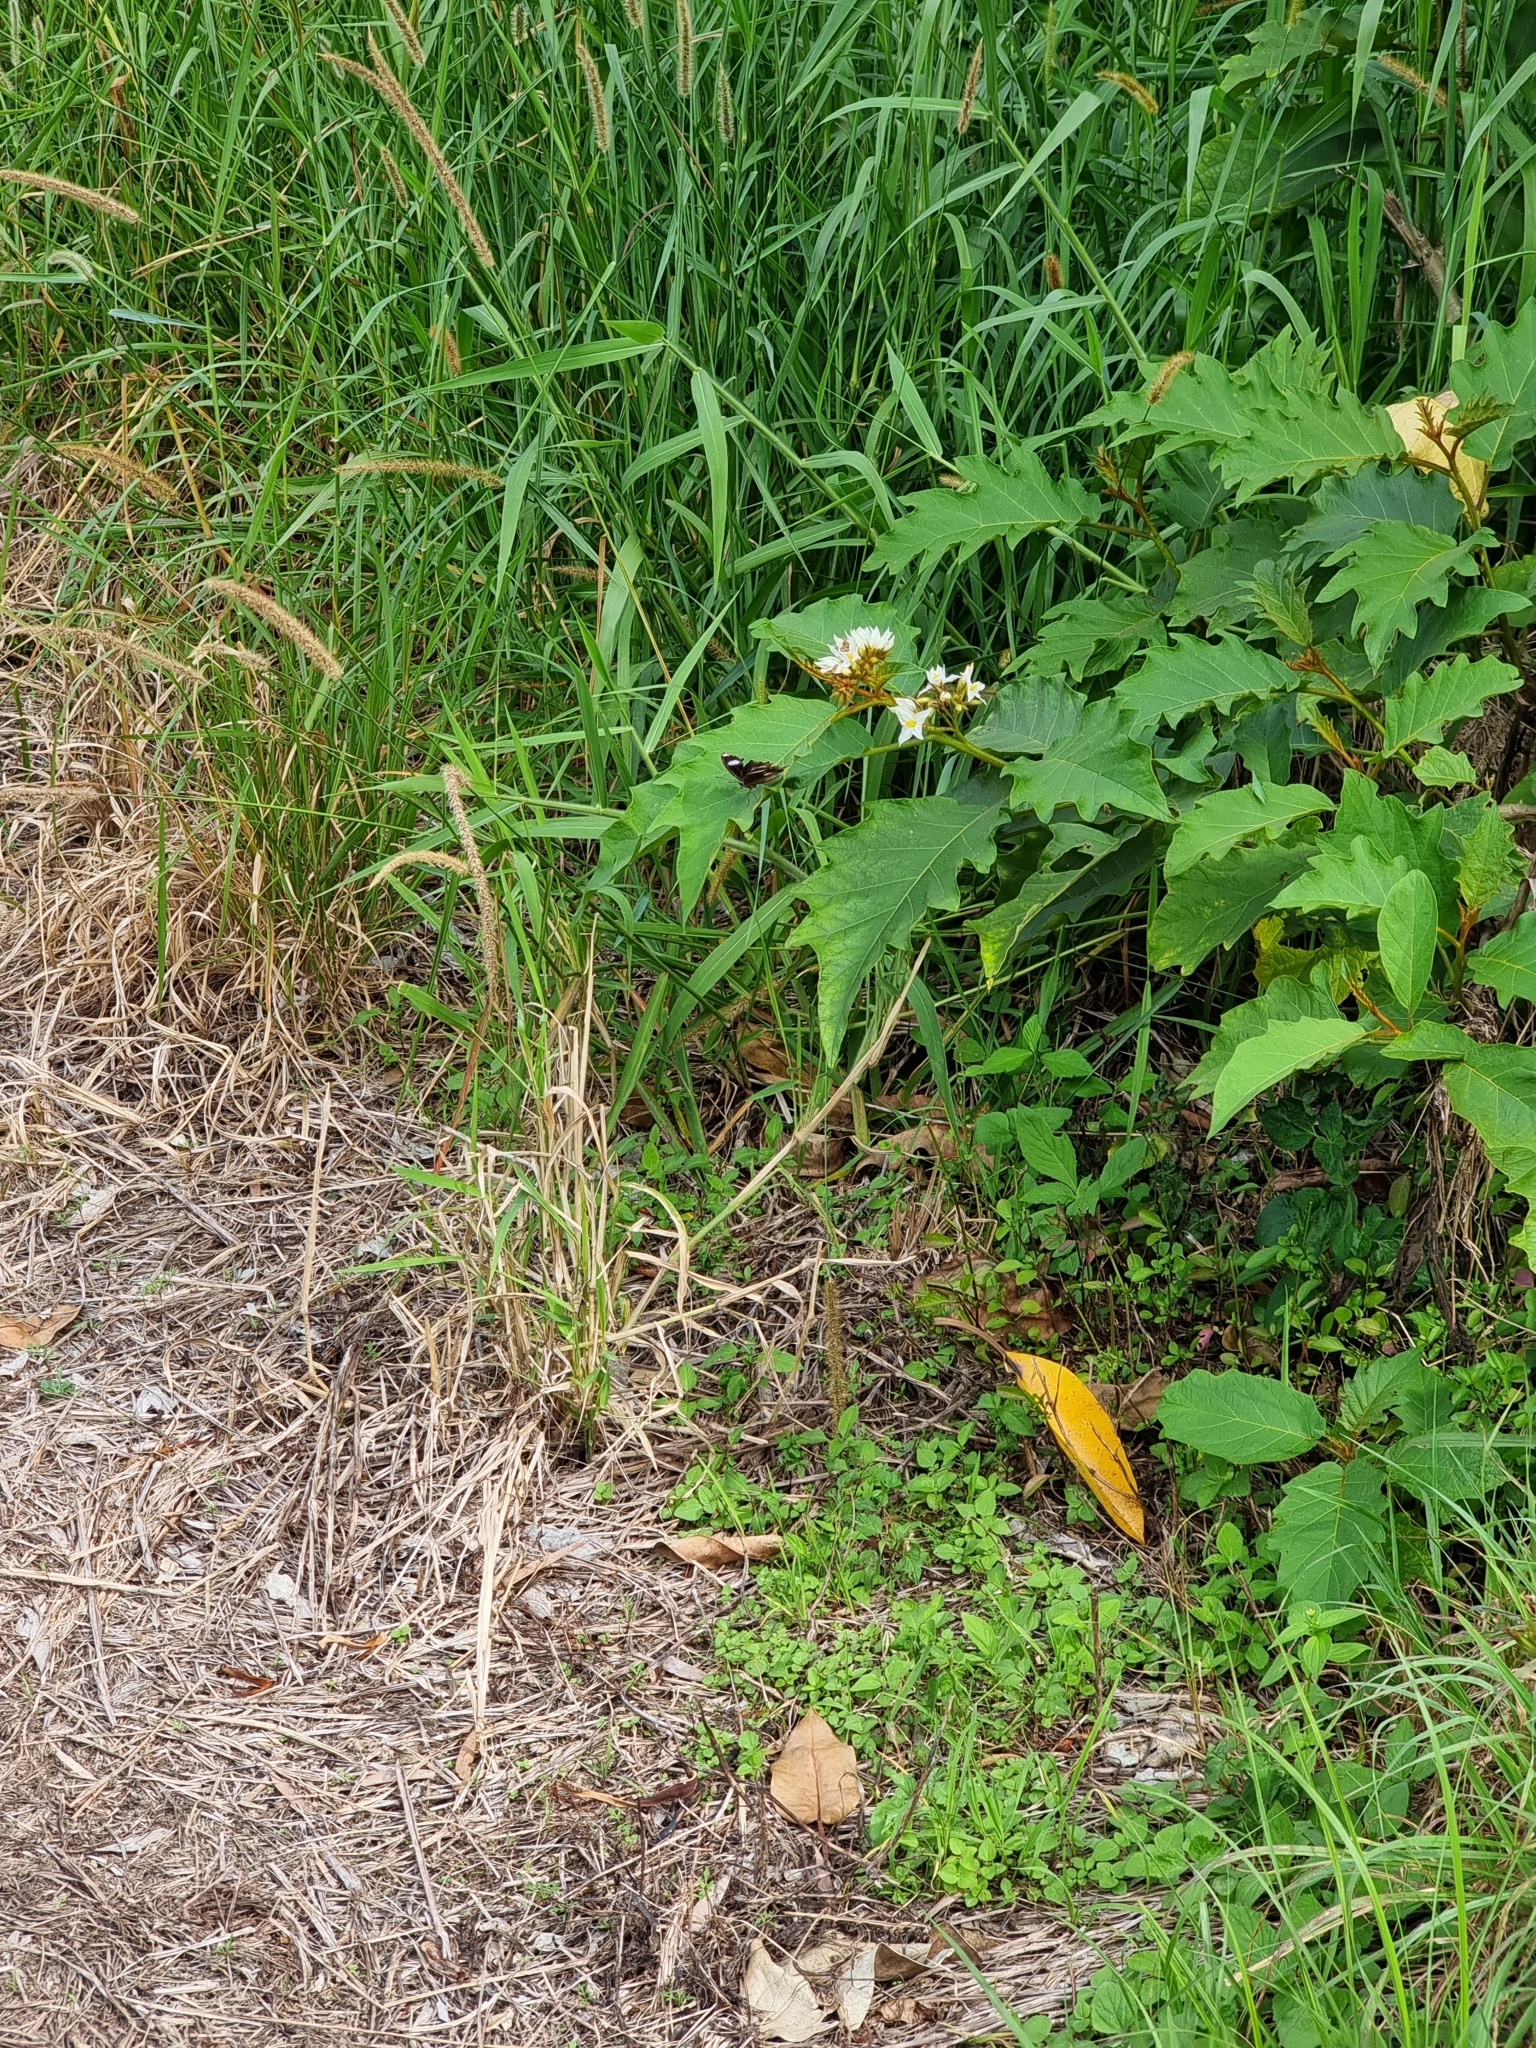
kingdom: Animalia
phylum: Arthropoda
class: Insecta
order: Lepidoptera
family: Nymphalidae
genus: Hypolimnas
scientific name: Hypolimnas bolina
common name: Great eggfly
